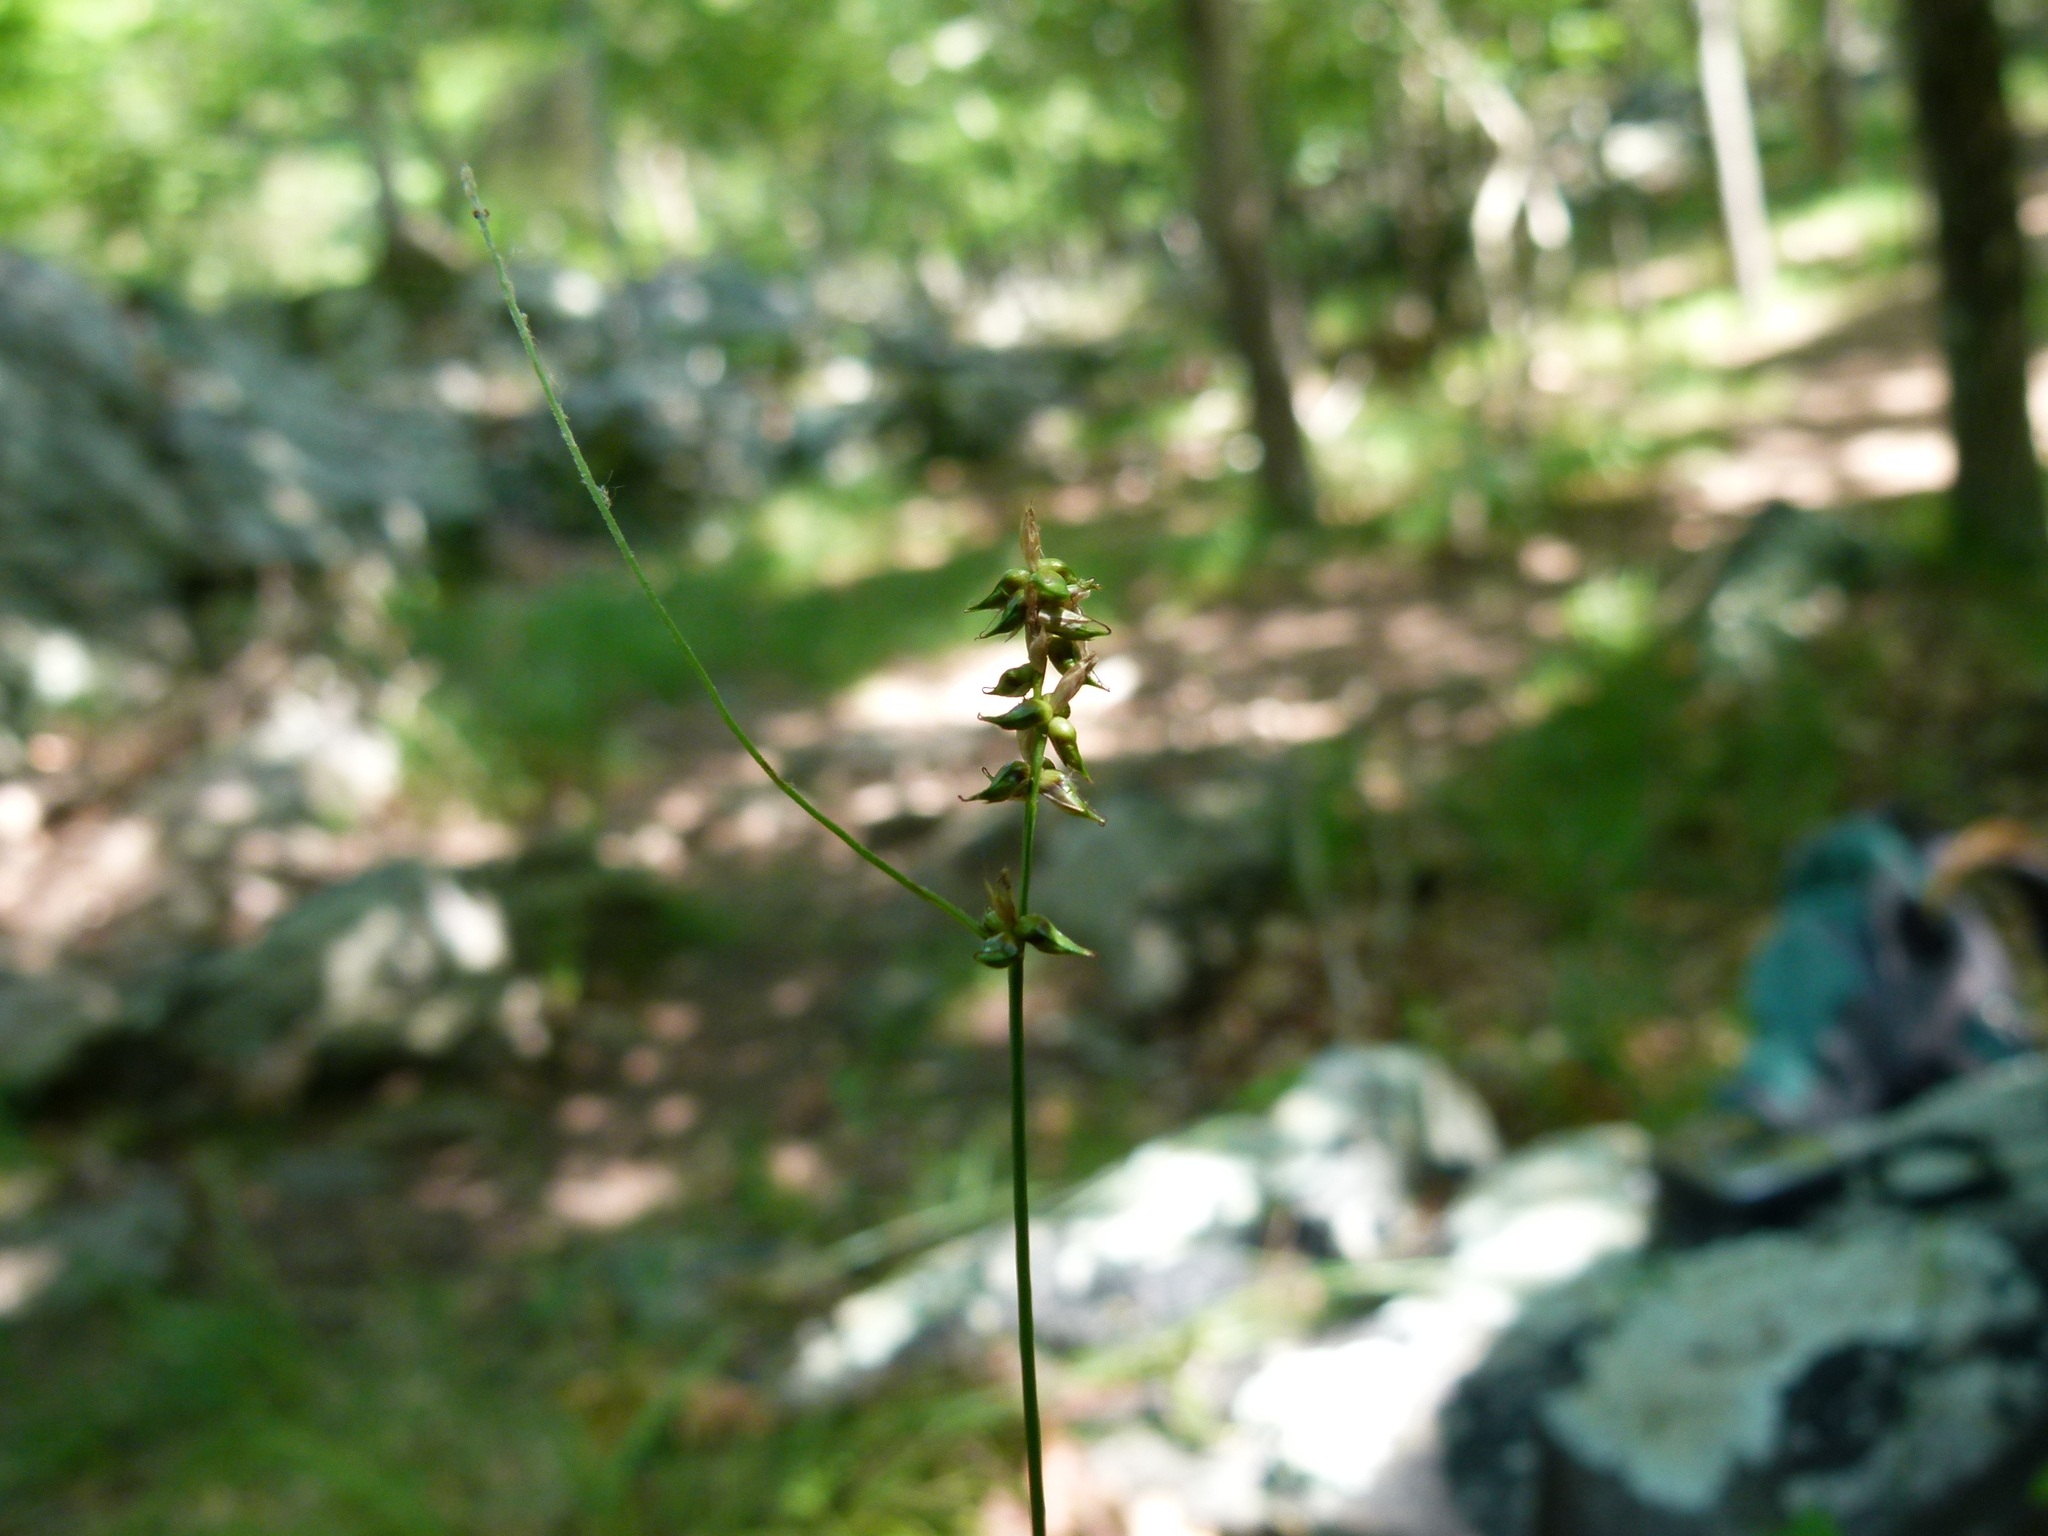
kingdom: Plantae
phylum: Tracheophyta
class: Liliopsida
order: Poales
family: Cyperaceae
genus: Carex
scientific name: Carex retroflexa
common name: Reflexed sedge
